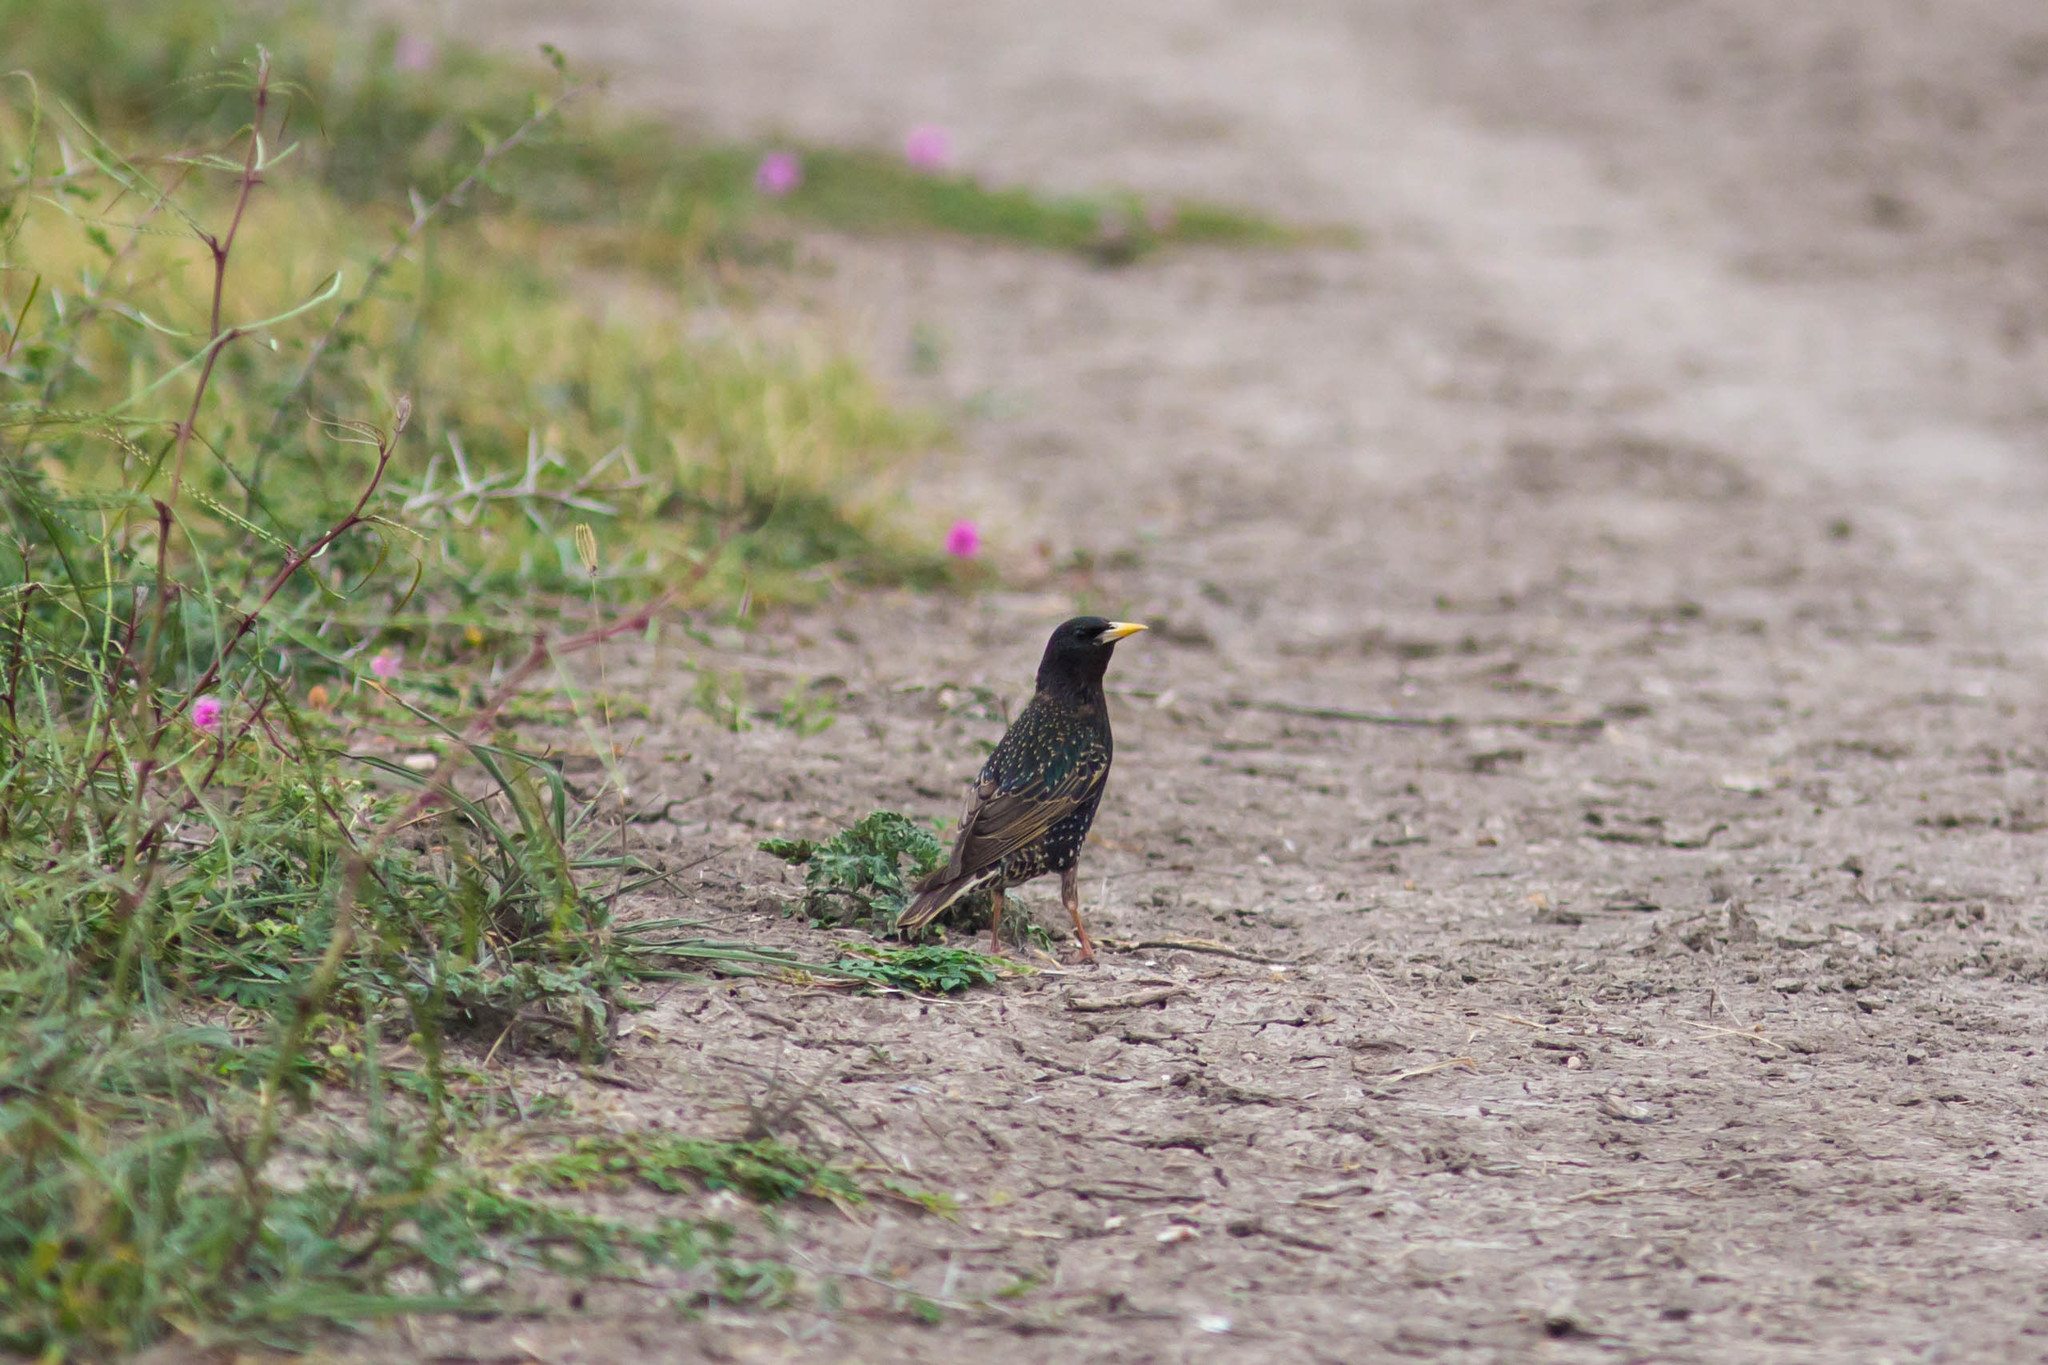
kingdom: Animalia
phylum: Chordata
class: Aves
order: Passeriformes
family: Sturnidae
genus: Sturnus
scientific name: Sturnus vulgaris
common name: Common starling
